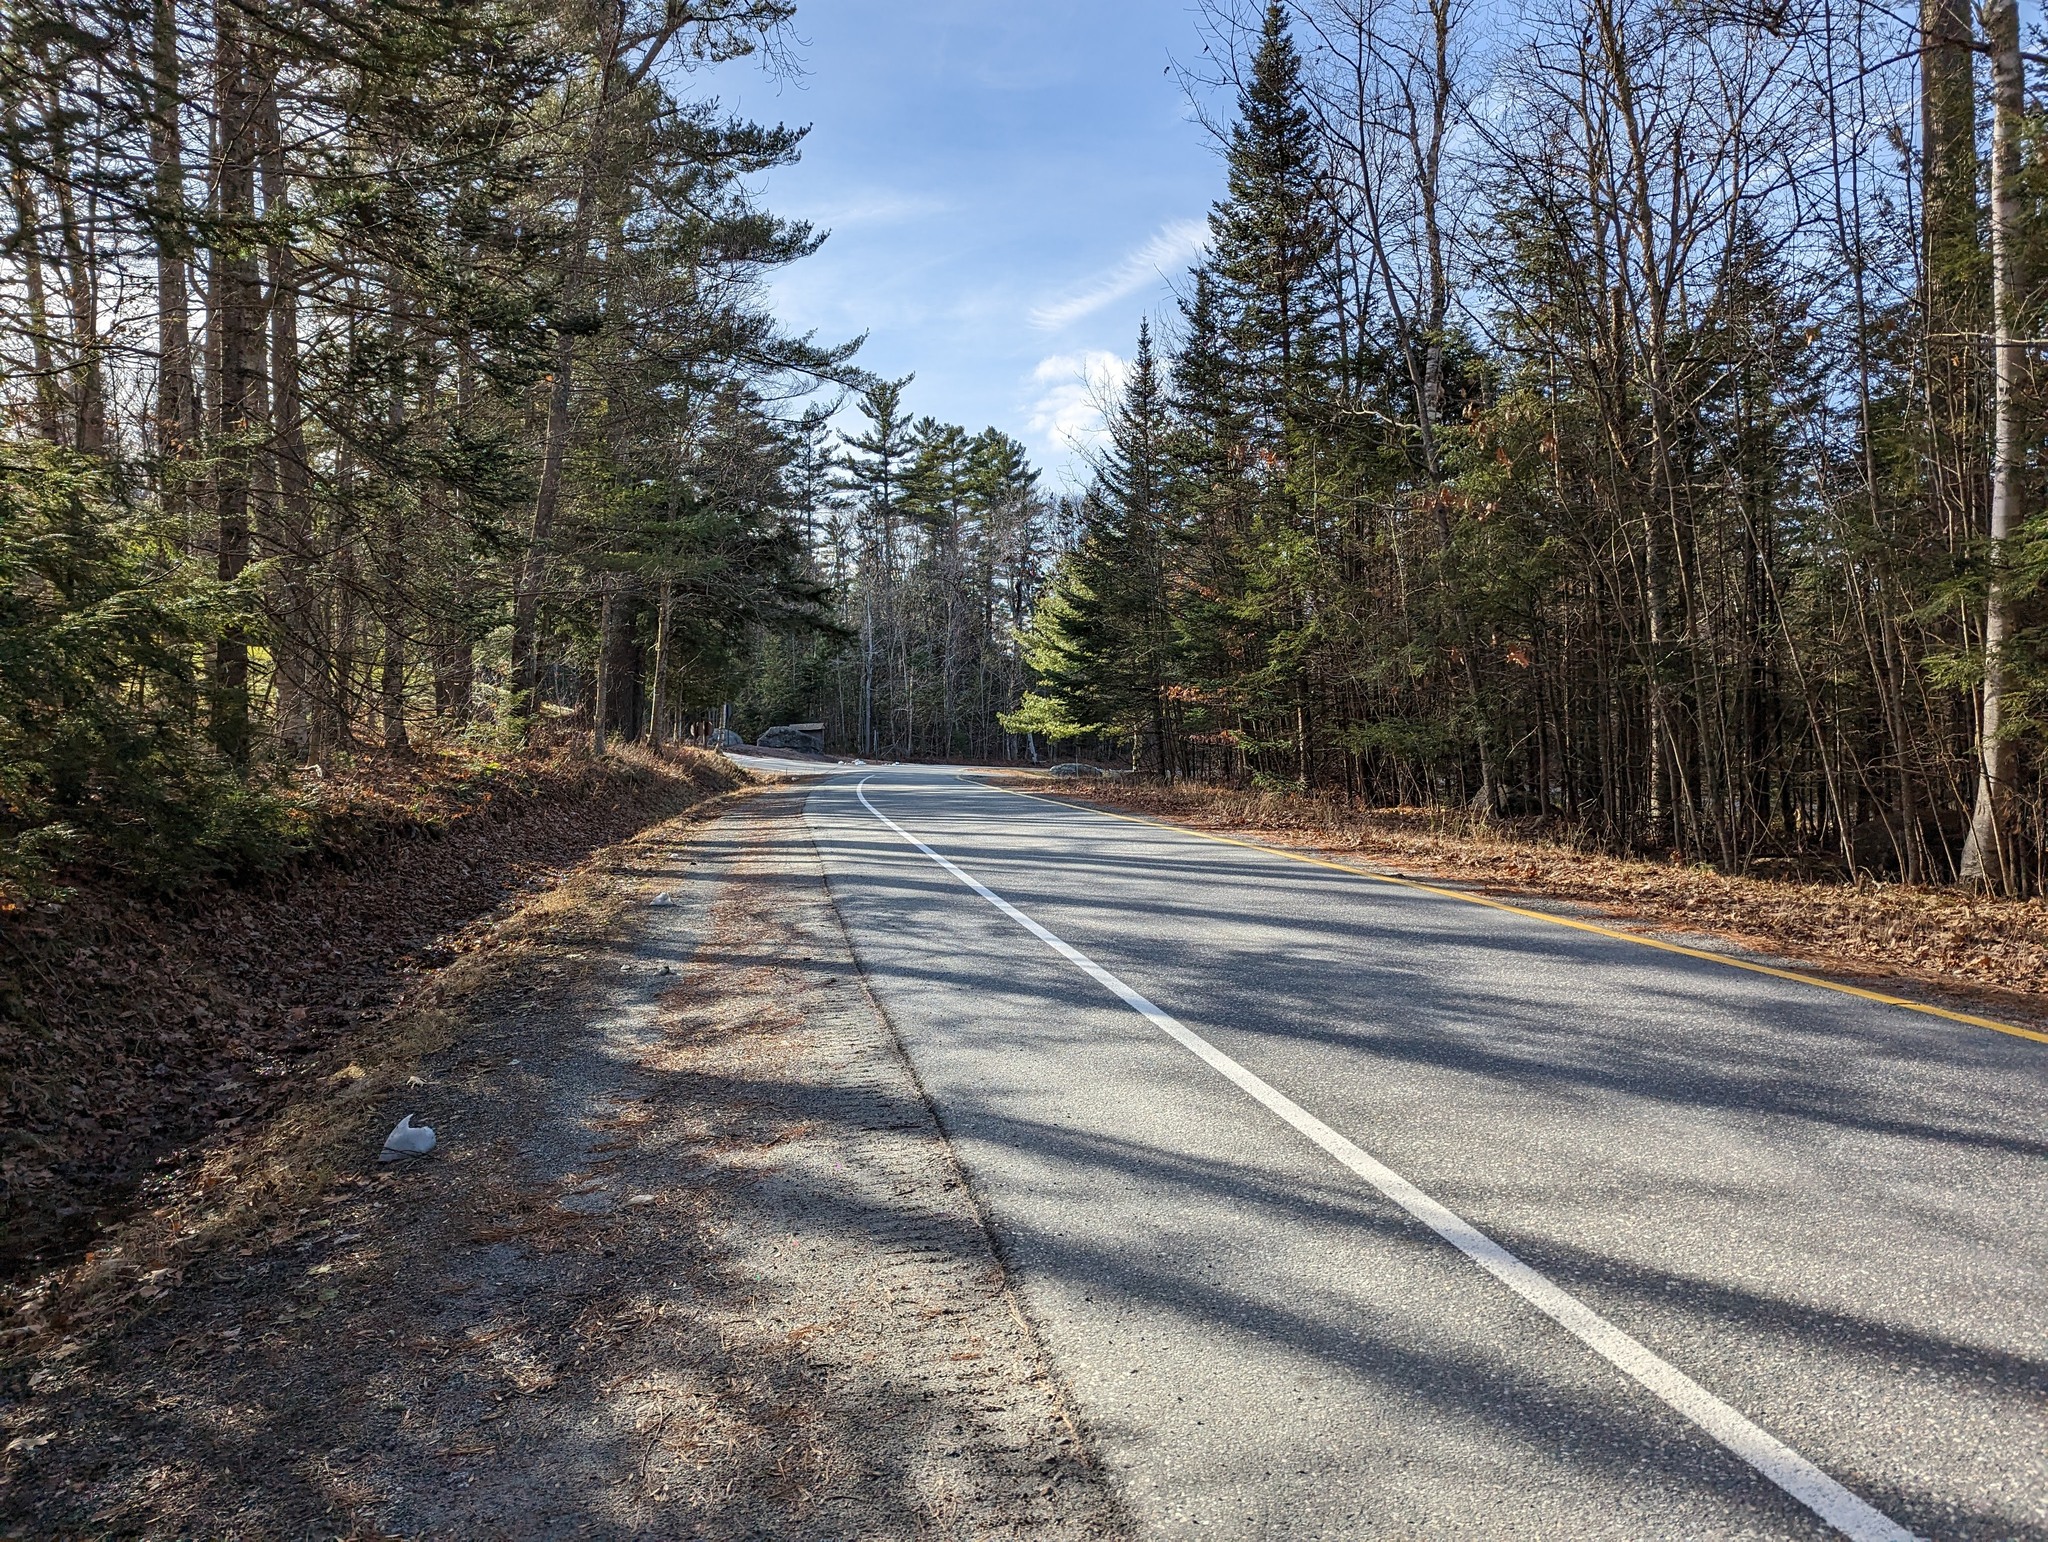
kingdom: Plantae
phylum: Tracheophyta
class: Pinopsida
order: Pinales
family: Pinaceae
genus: Pinus
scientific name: Pinus strobus
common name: Weymouth pine
